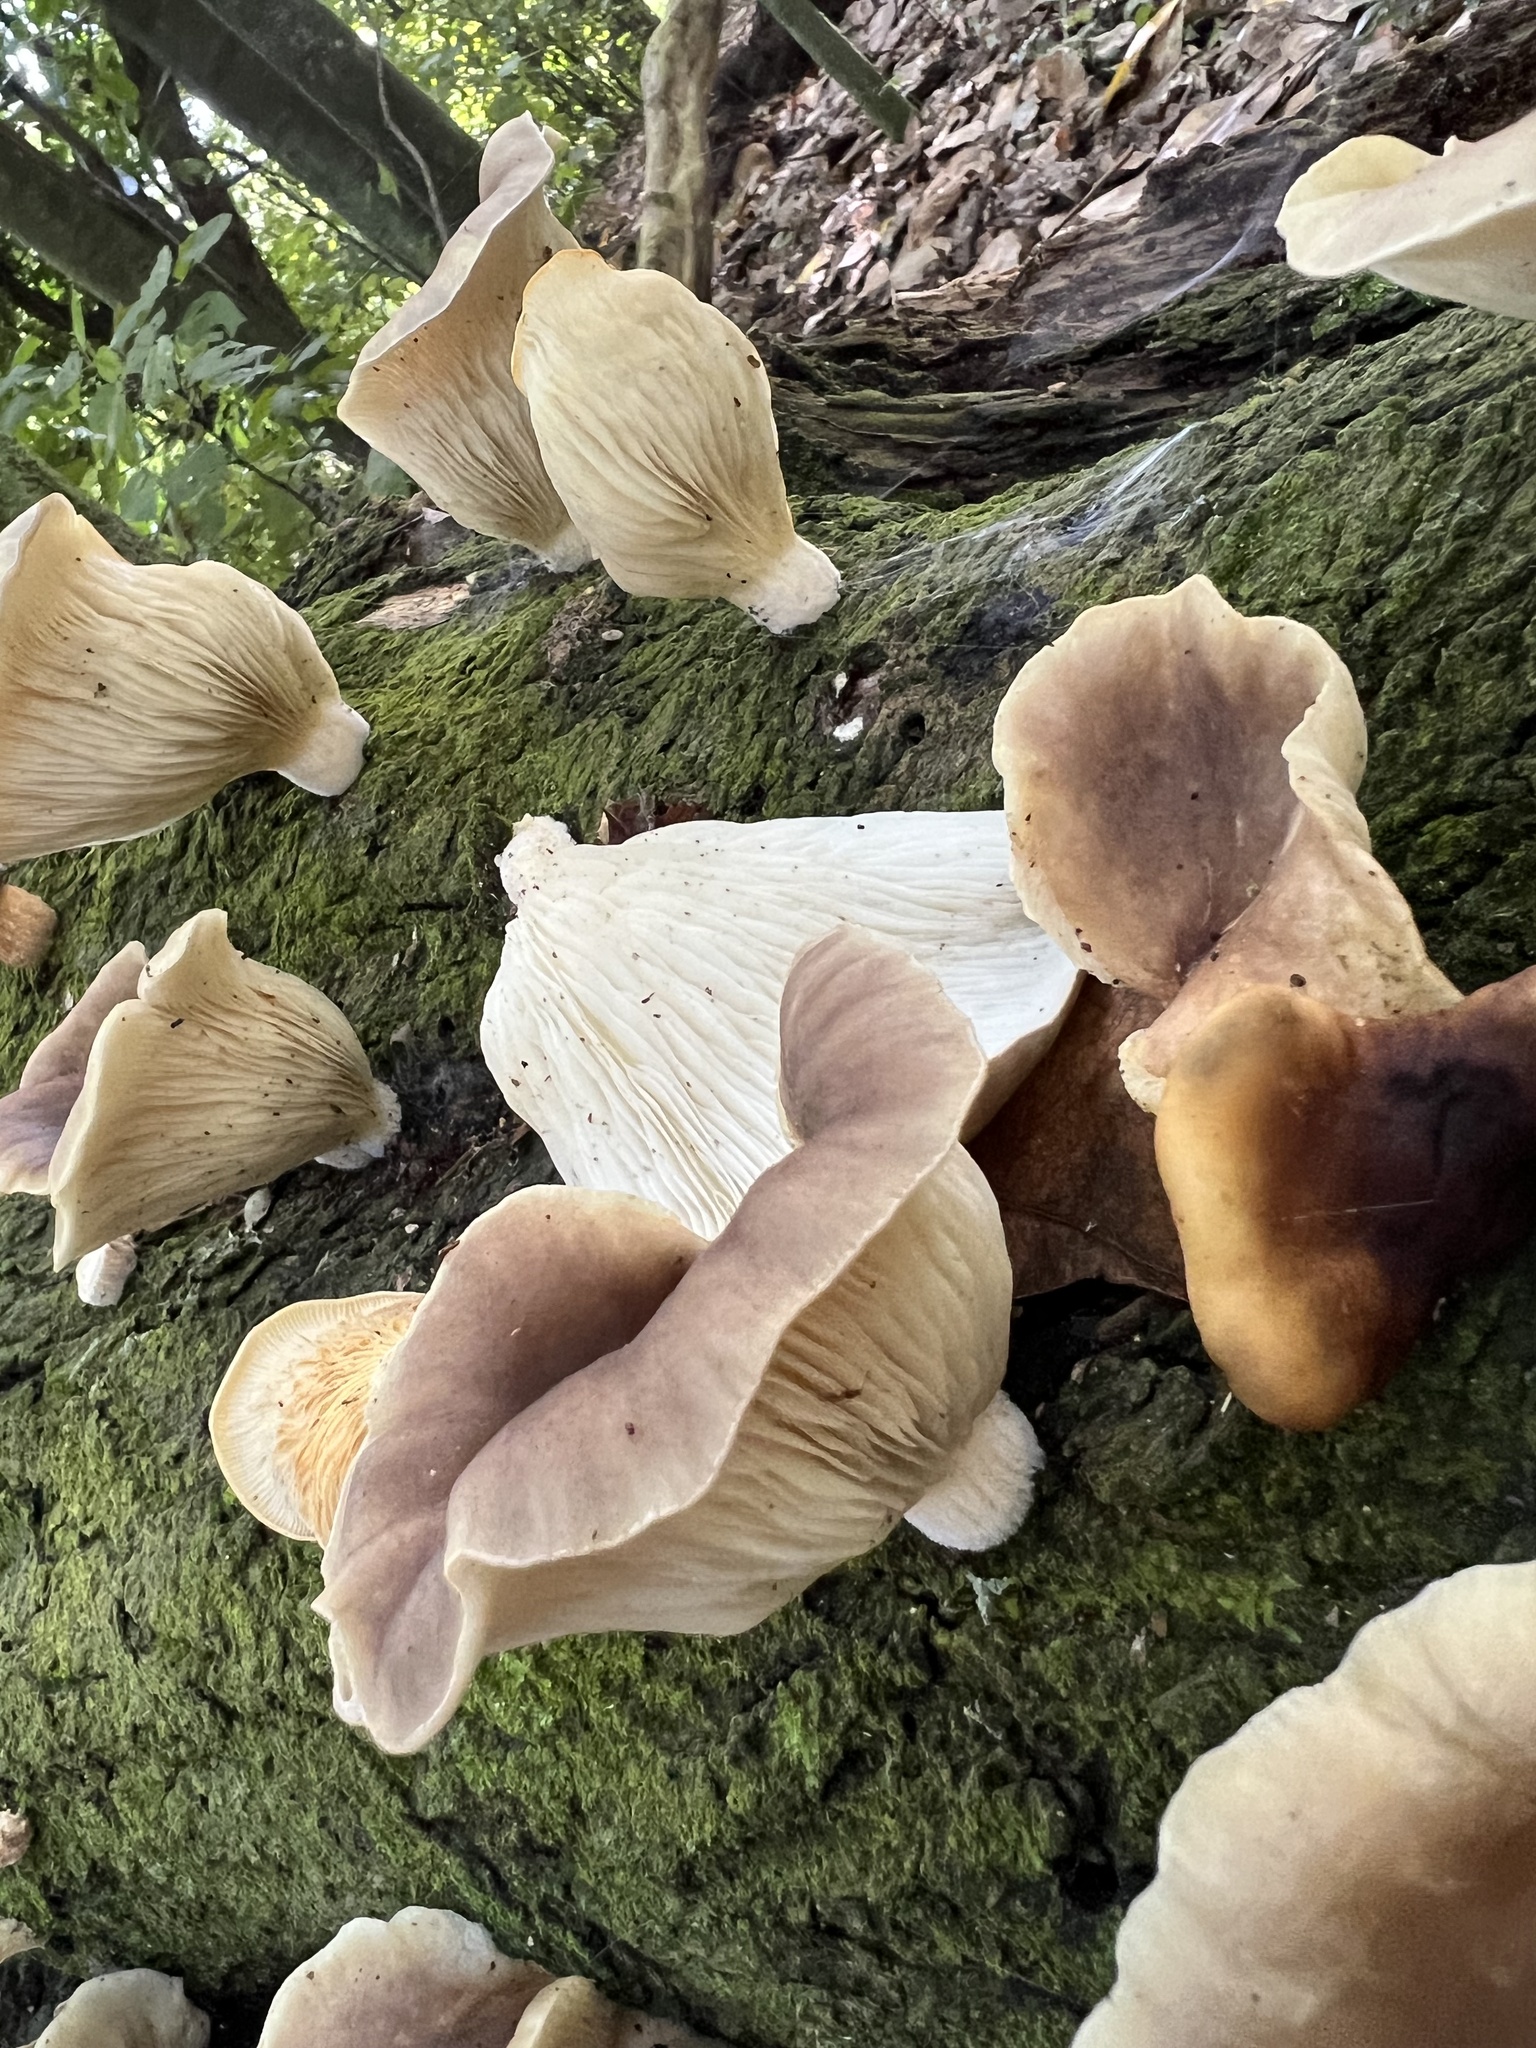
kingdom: Fungi
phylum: Basidiomycota
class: Agaricomycetes
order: Agaricales
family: Pleurotaceae
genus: Pleurotus
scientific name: Pleurotus australis
